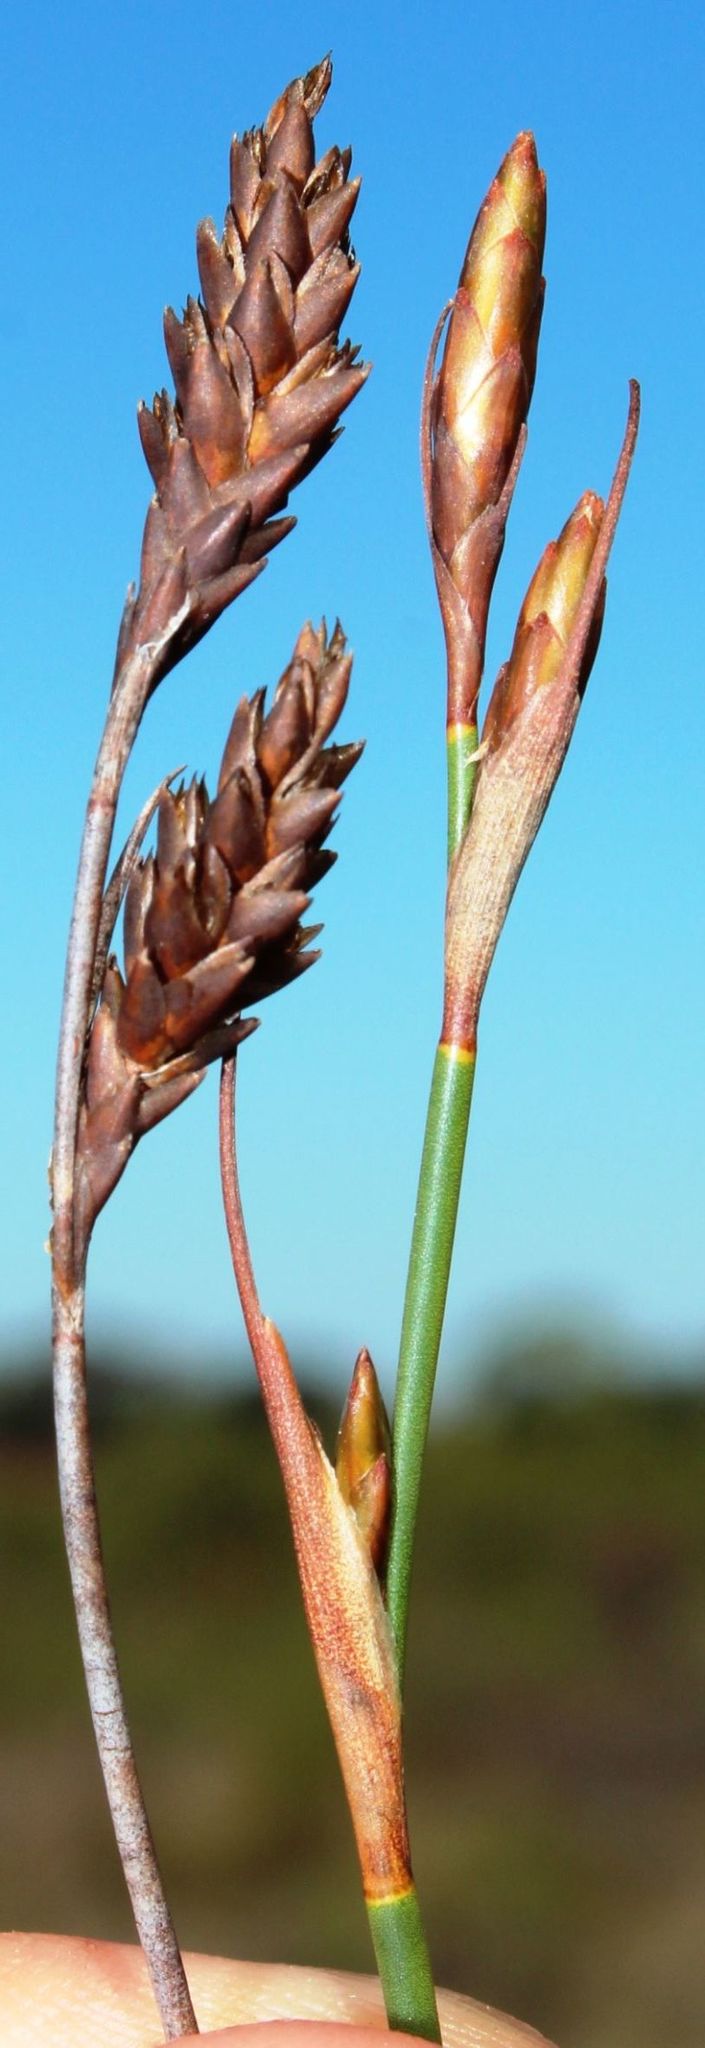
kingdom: Plantae
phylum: Tracheophyta
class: Liliopsida
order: Poales
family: Restionaceae
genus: Restio
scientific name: Restio quinquefarius
